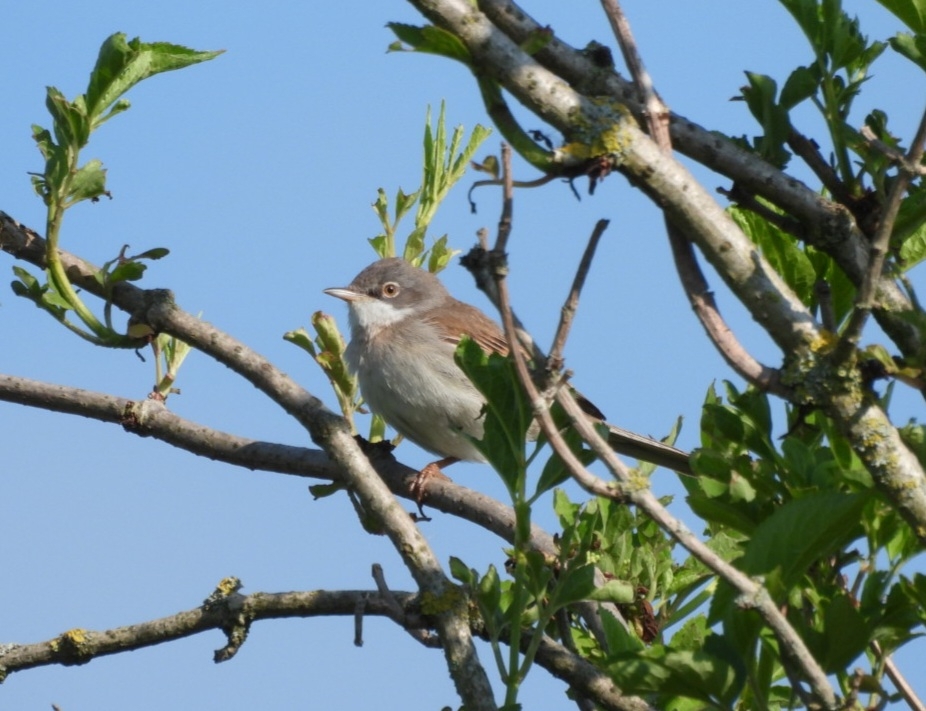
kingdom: Animalia
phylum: Chordata
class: Aves
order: Passeriformes
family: Sylviidae
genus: Sylvia
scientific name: Sylvia communis
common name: Common whitethroat
